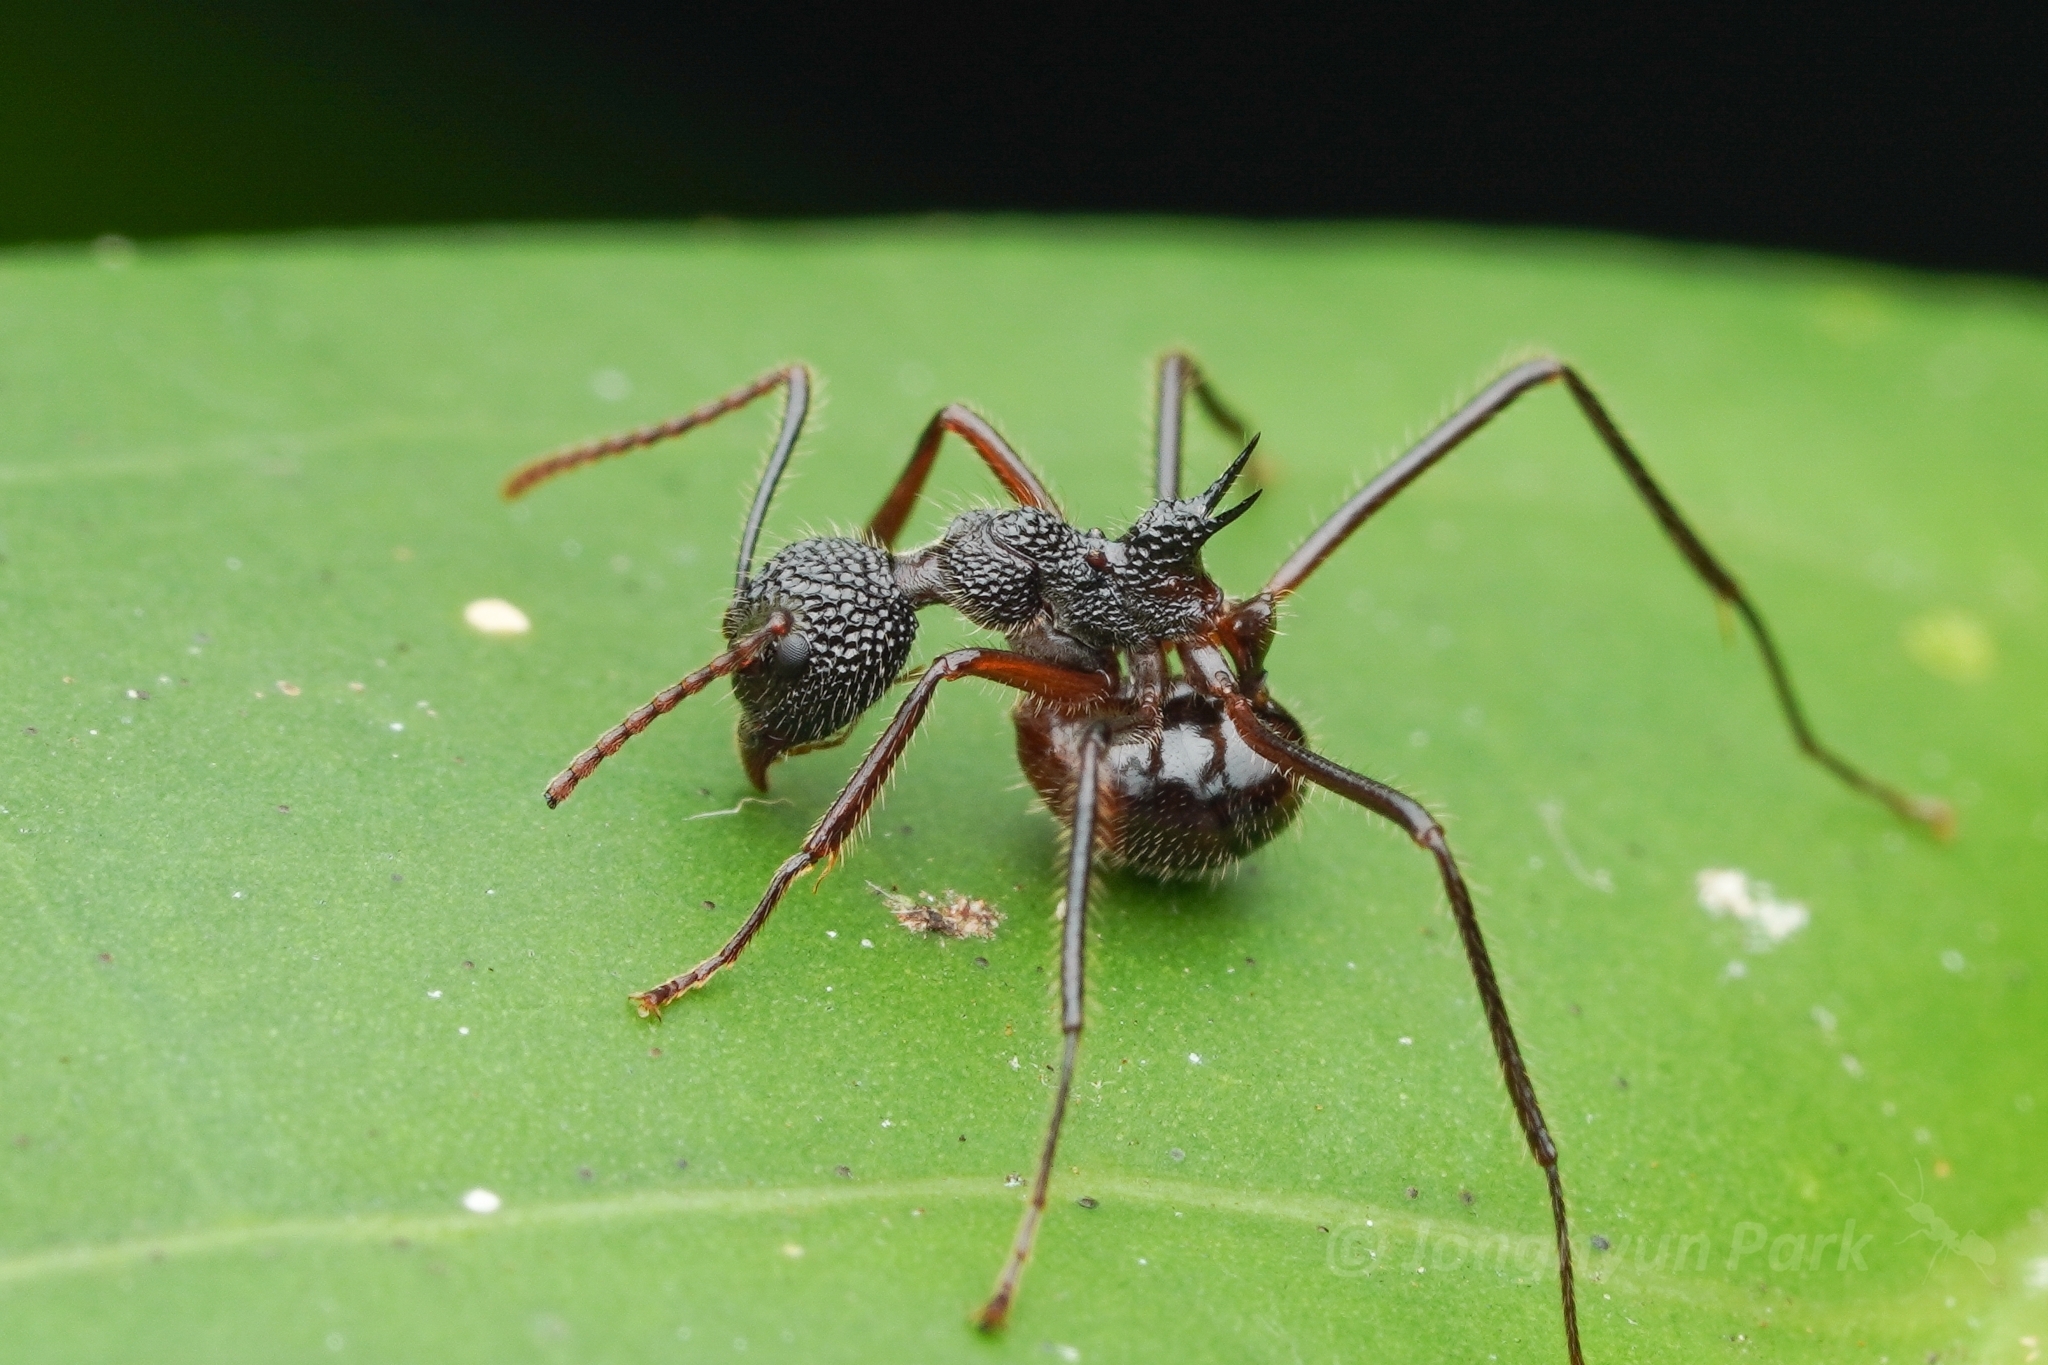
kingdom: Animalia
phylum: Arthropoda
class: Insecta
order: Hymenoptera
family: Formicidae
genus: Dolichoderus
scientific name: Dolichoderus indrapurensis
